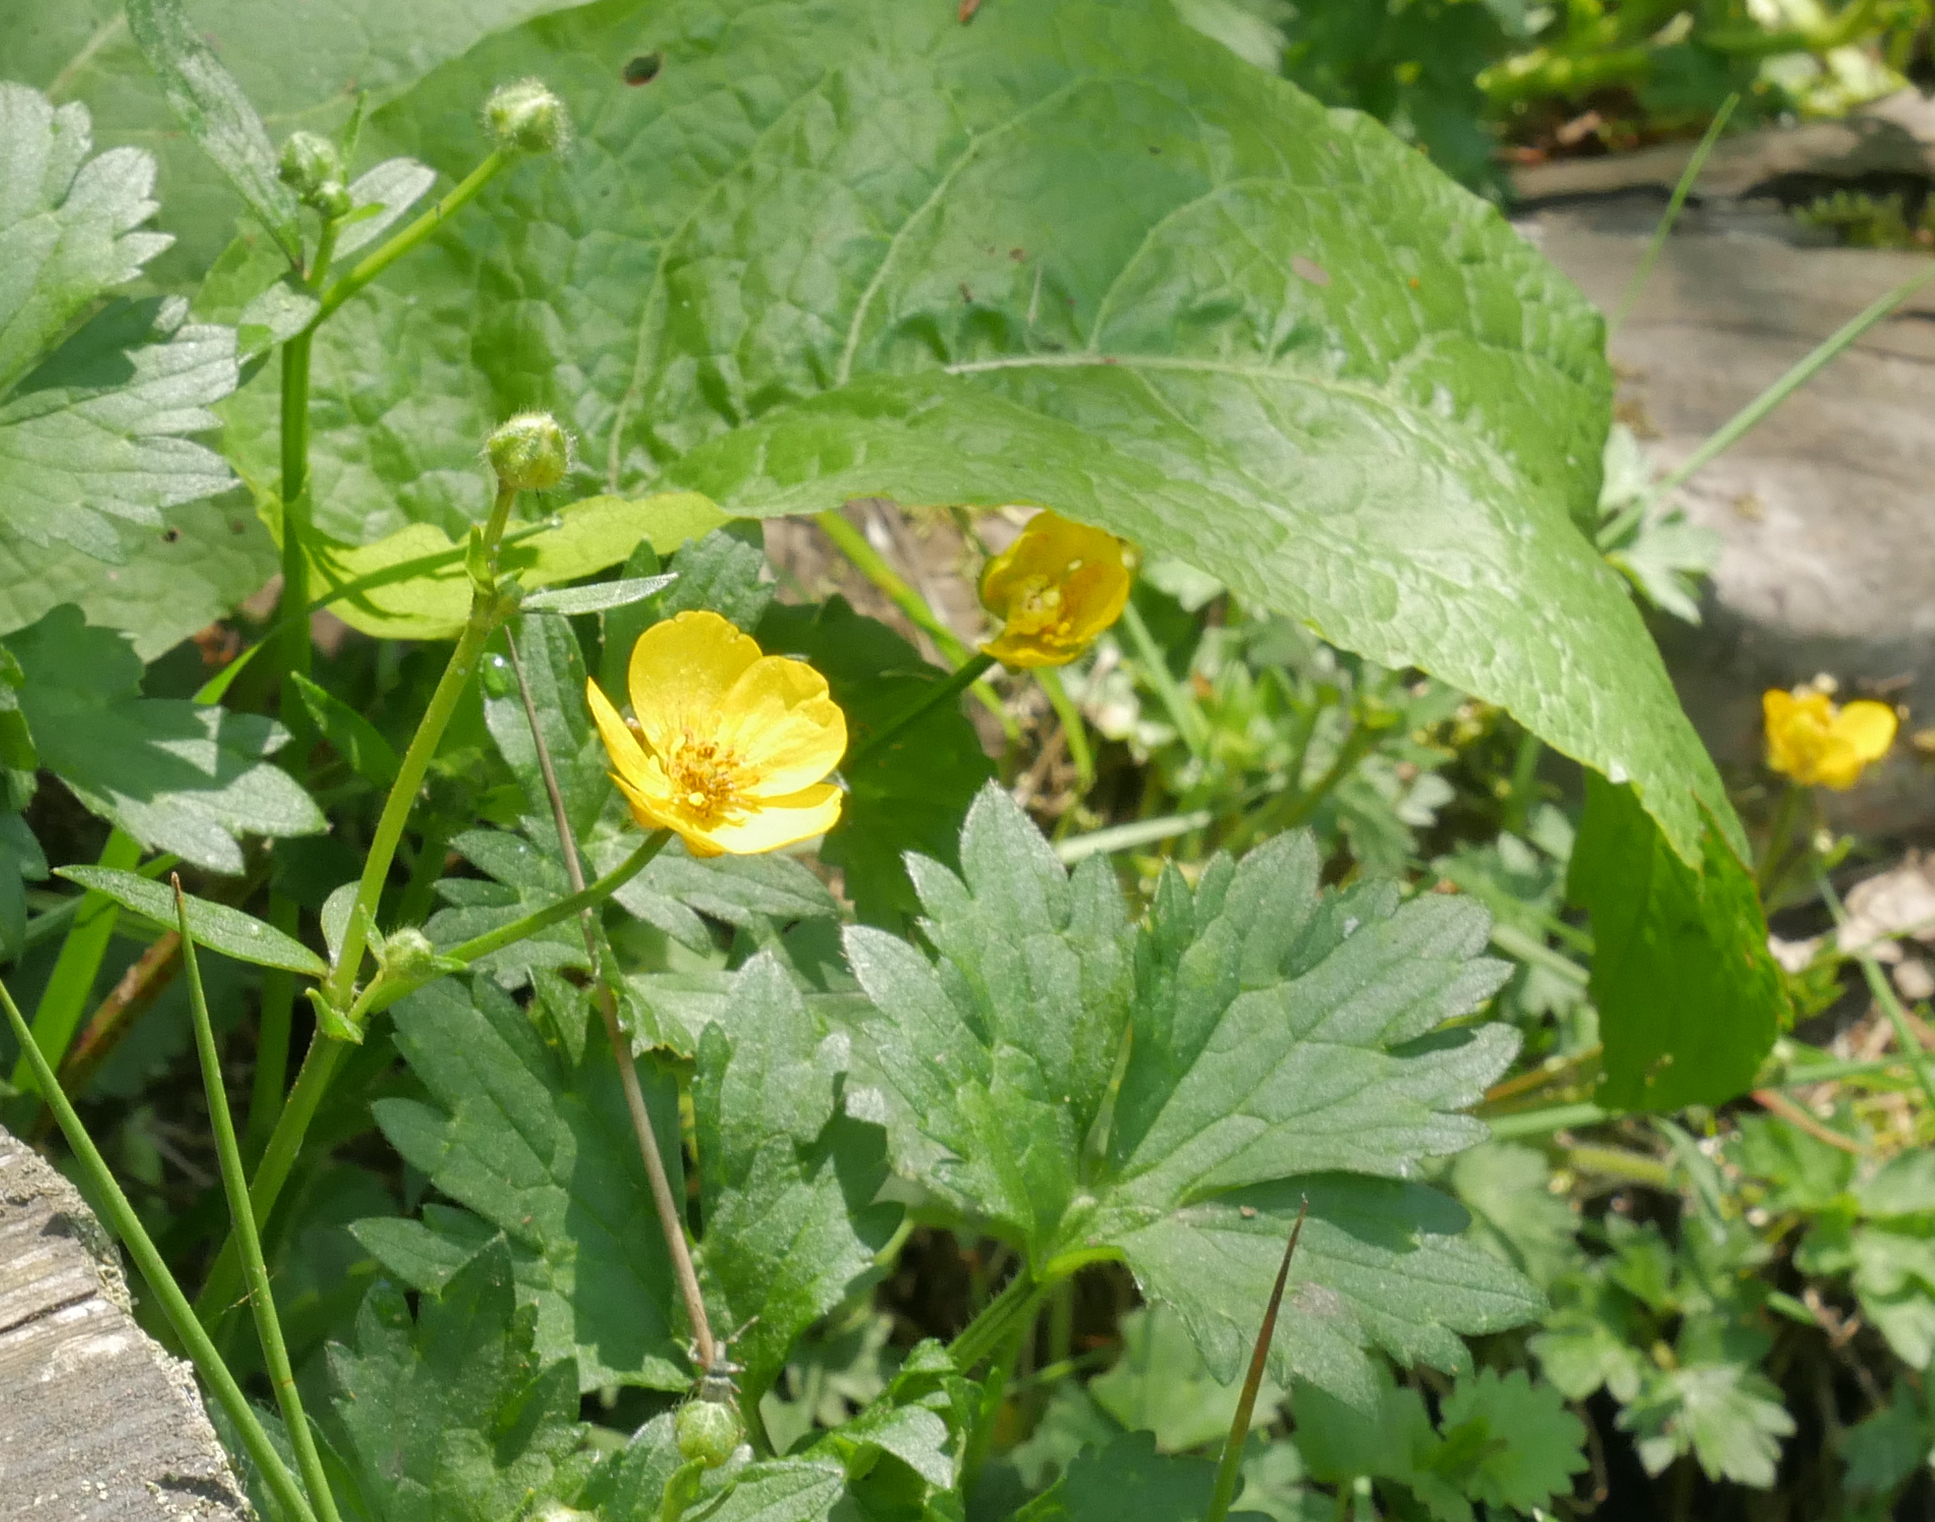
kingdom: Plantae
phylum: Tracheophyta
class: Magnoliopsida
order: Ranunculales
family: Ranunculaceae
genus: Ranunculus
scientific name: Ranunculus repens
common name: Creeping buttercup
